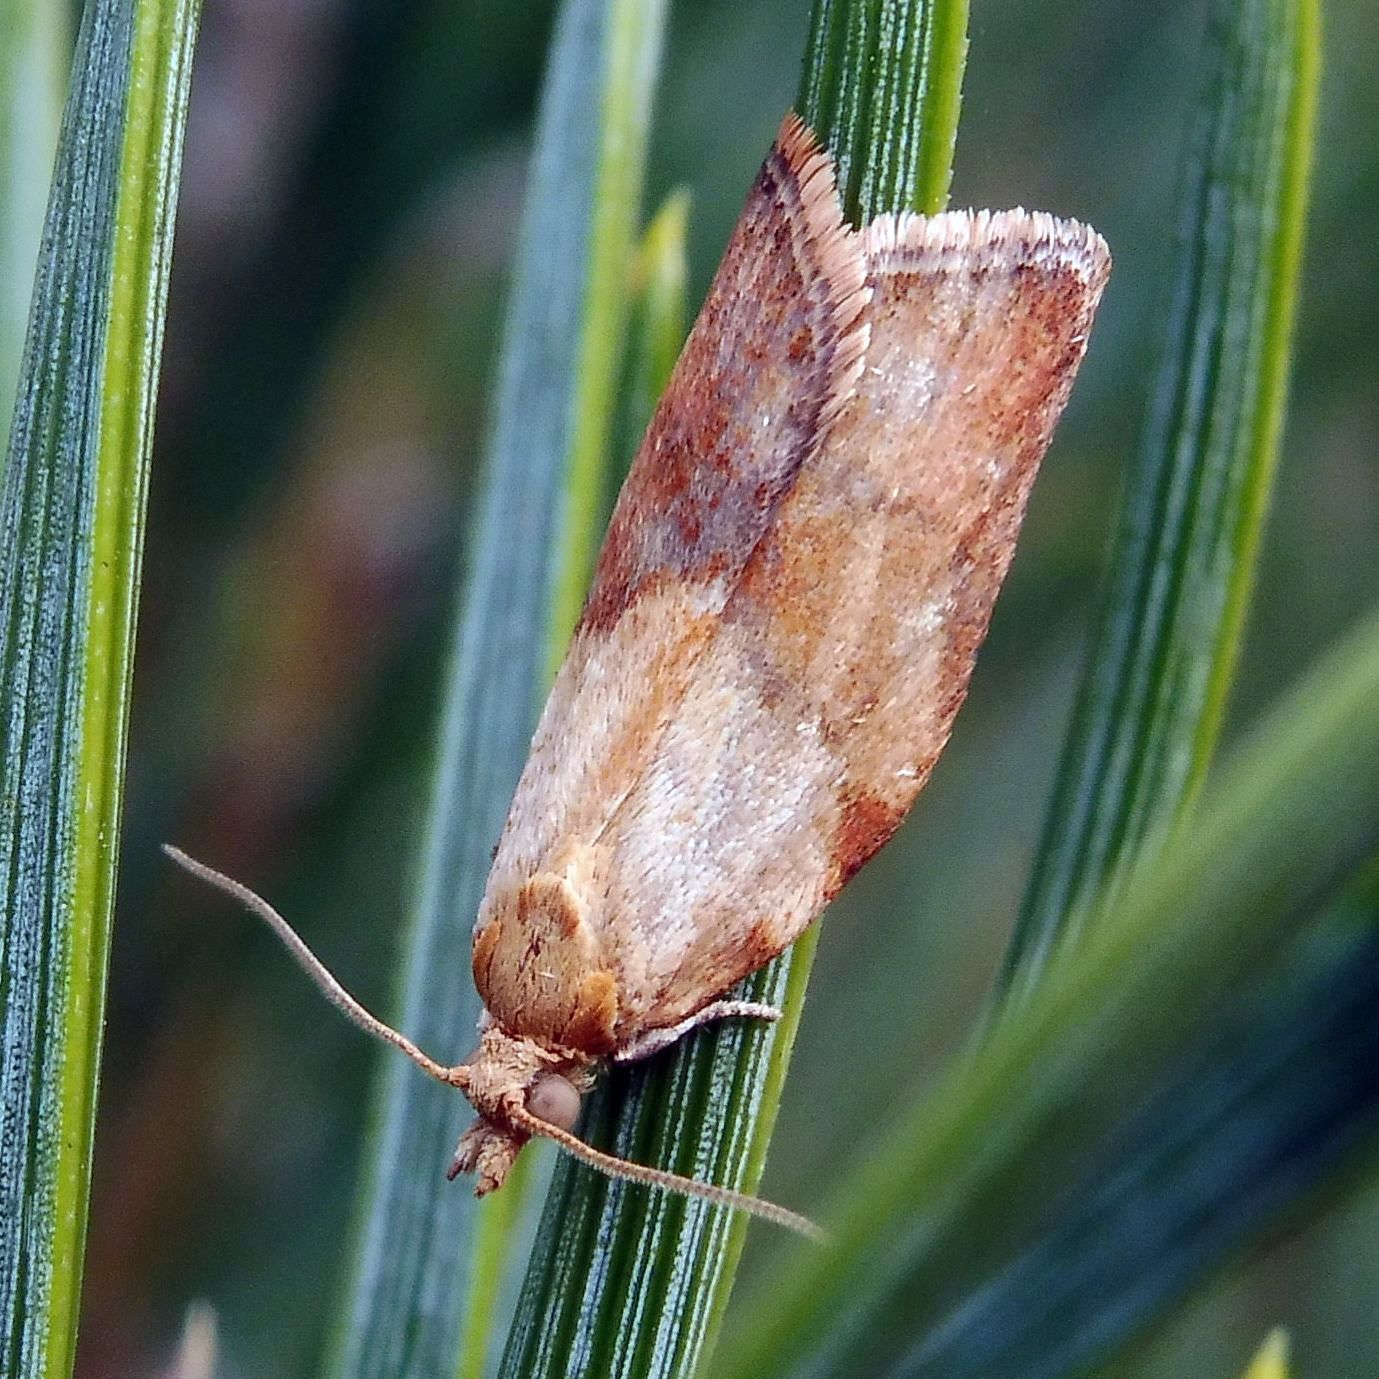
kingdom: Animalia
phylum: Arthropoda
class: Insecta
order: Lepidoptera
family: Tortricidae
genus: Epiphyas
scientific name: Epiphyas postvittana
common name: Light brown apple moth
